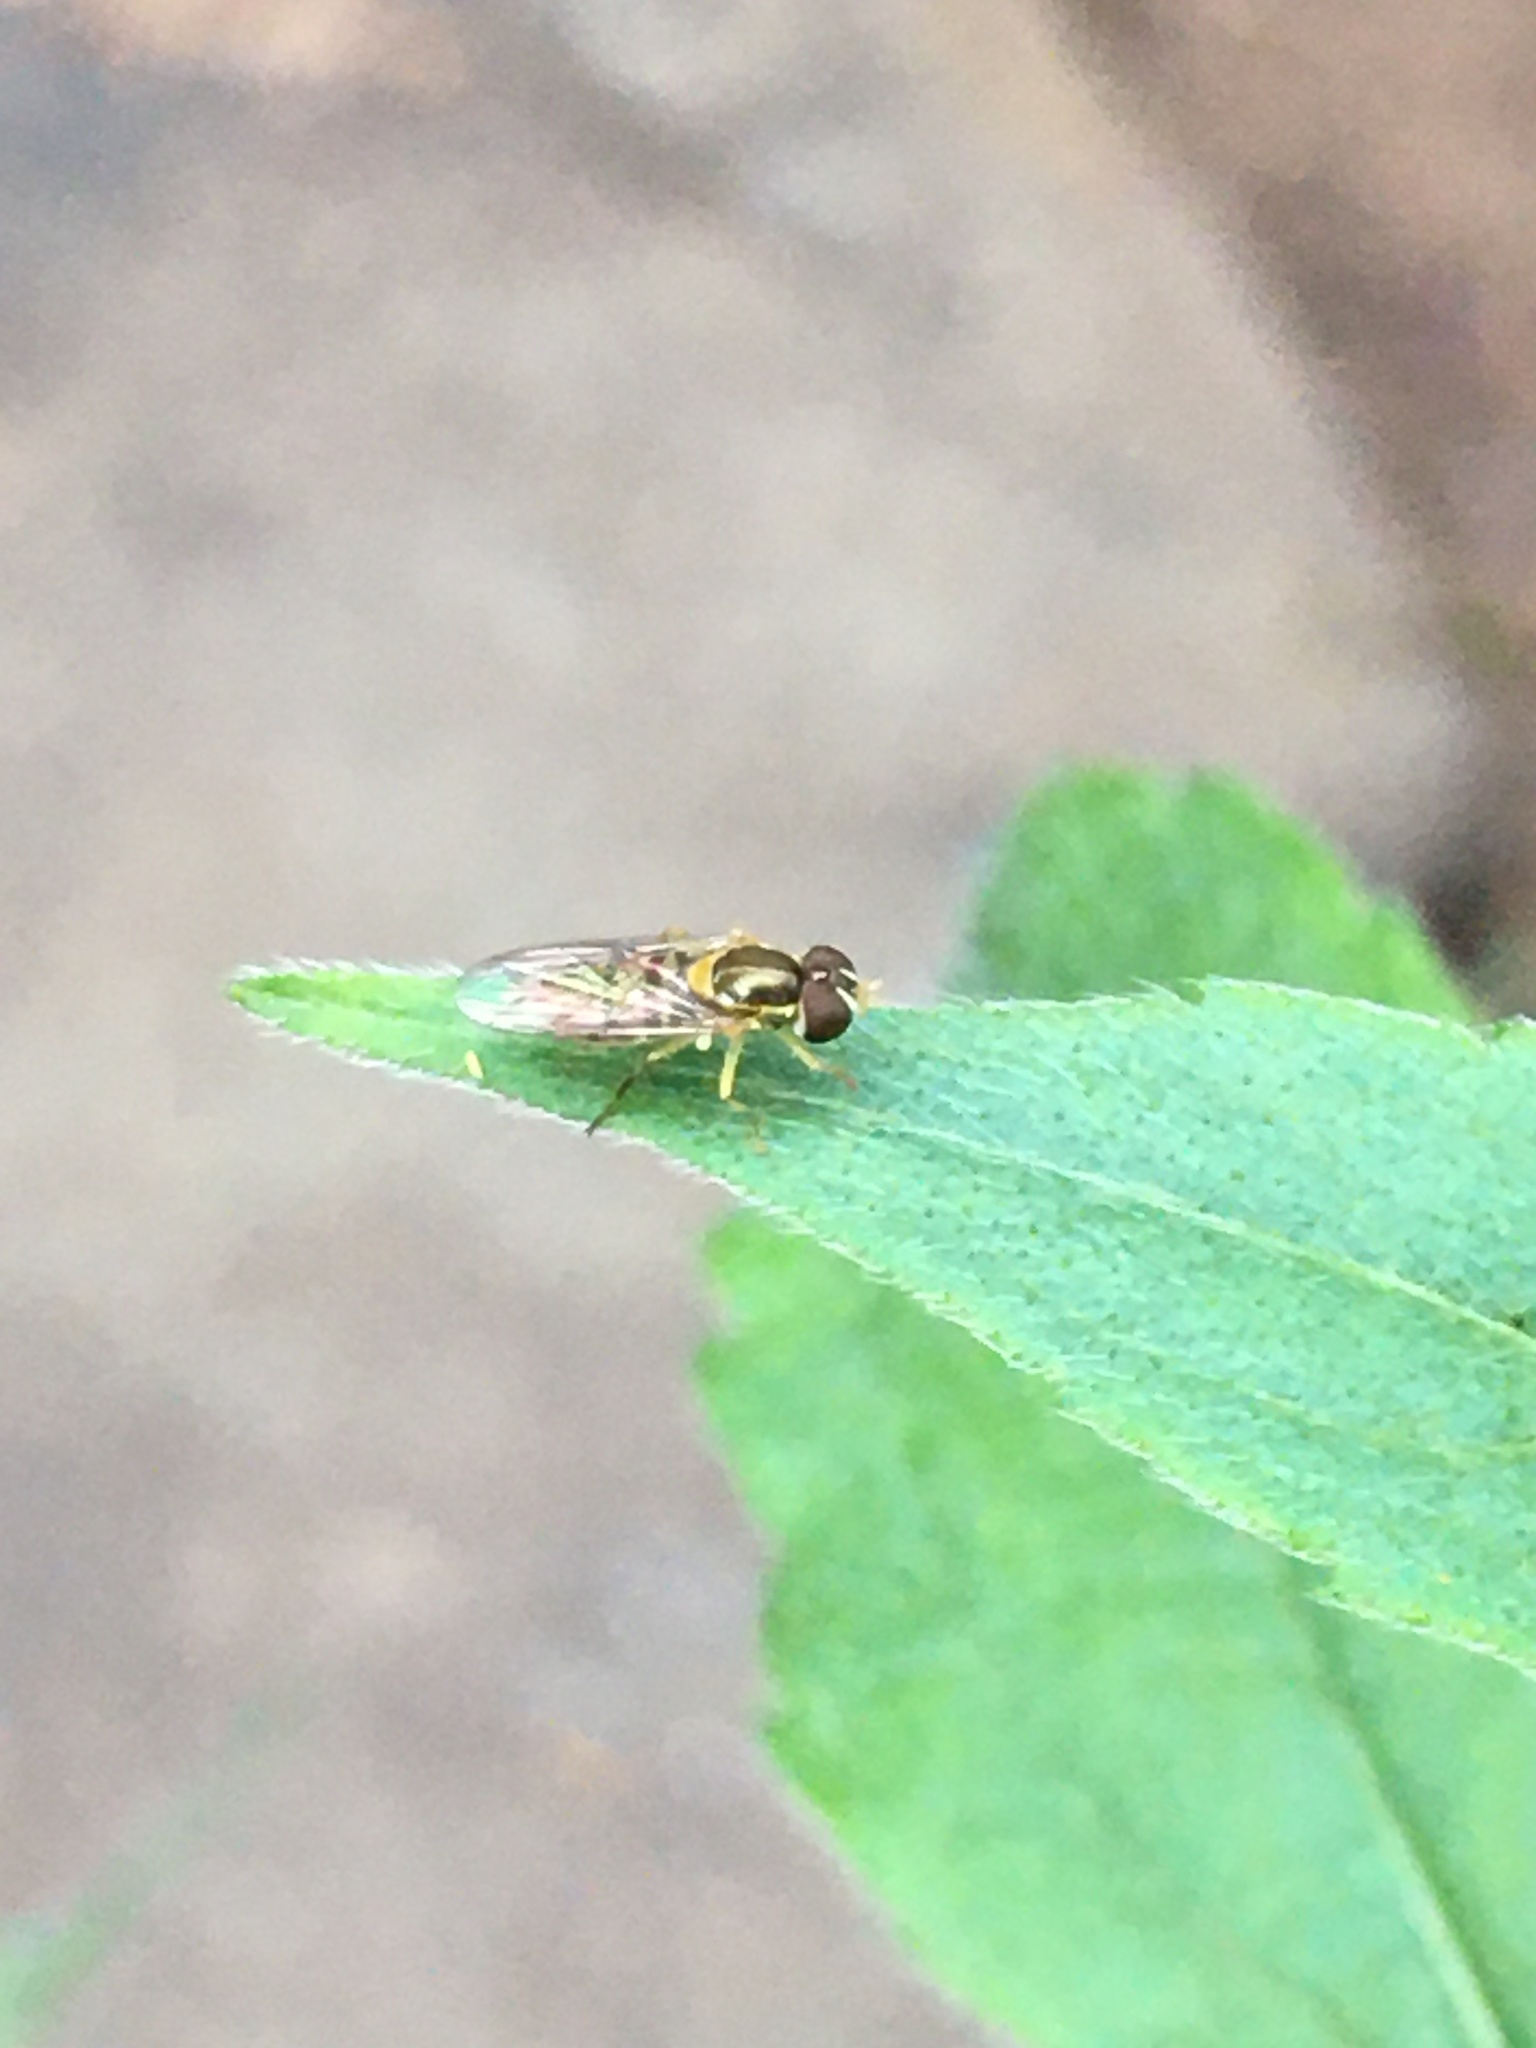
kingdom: Animalia
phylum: Arthropoda
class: Insecta
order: Diptera
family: Syrphidae
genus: Toxomerus
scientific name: Toxomerus marginatus
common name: Syrphid fly
